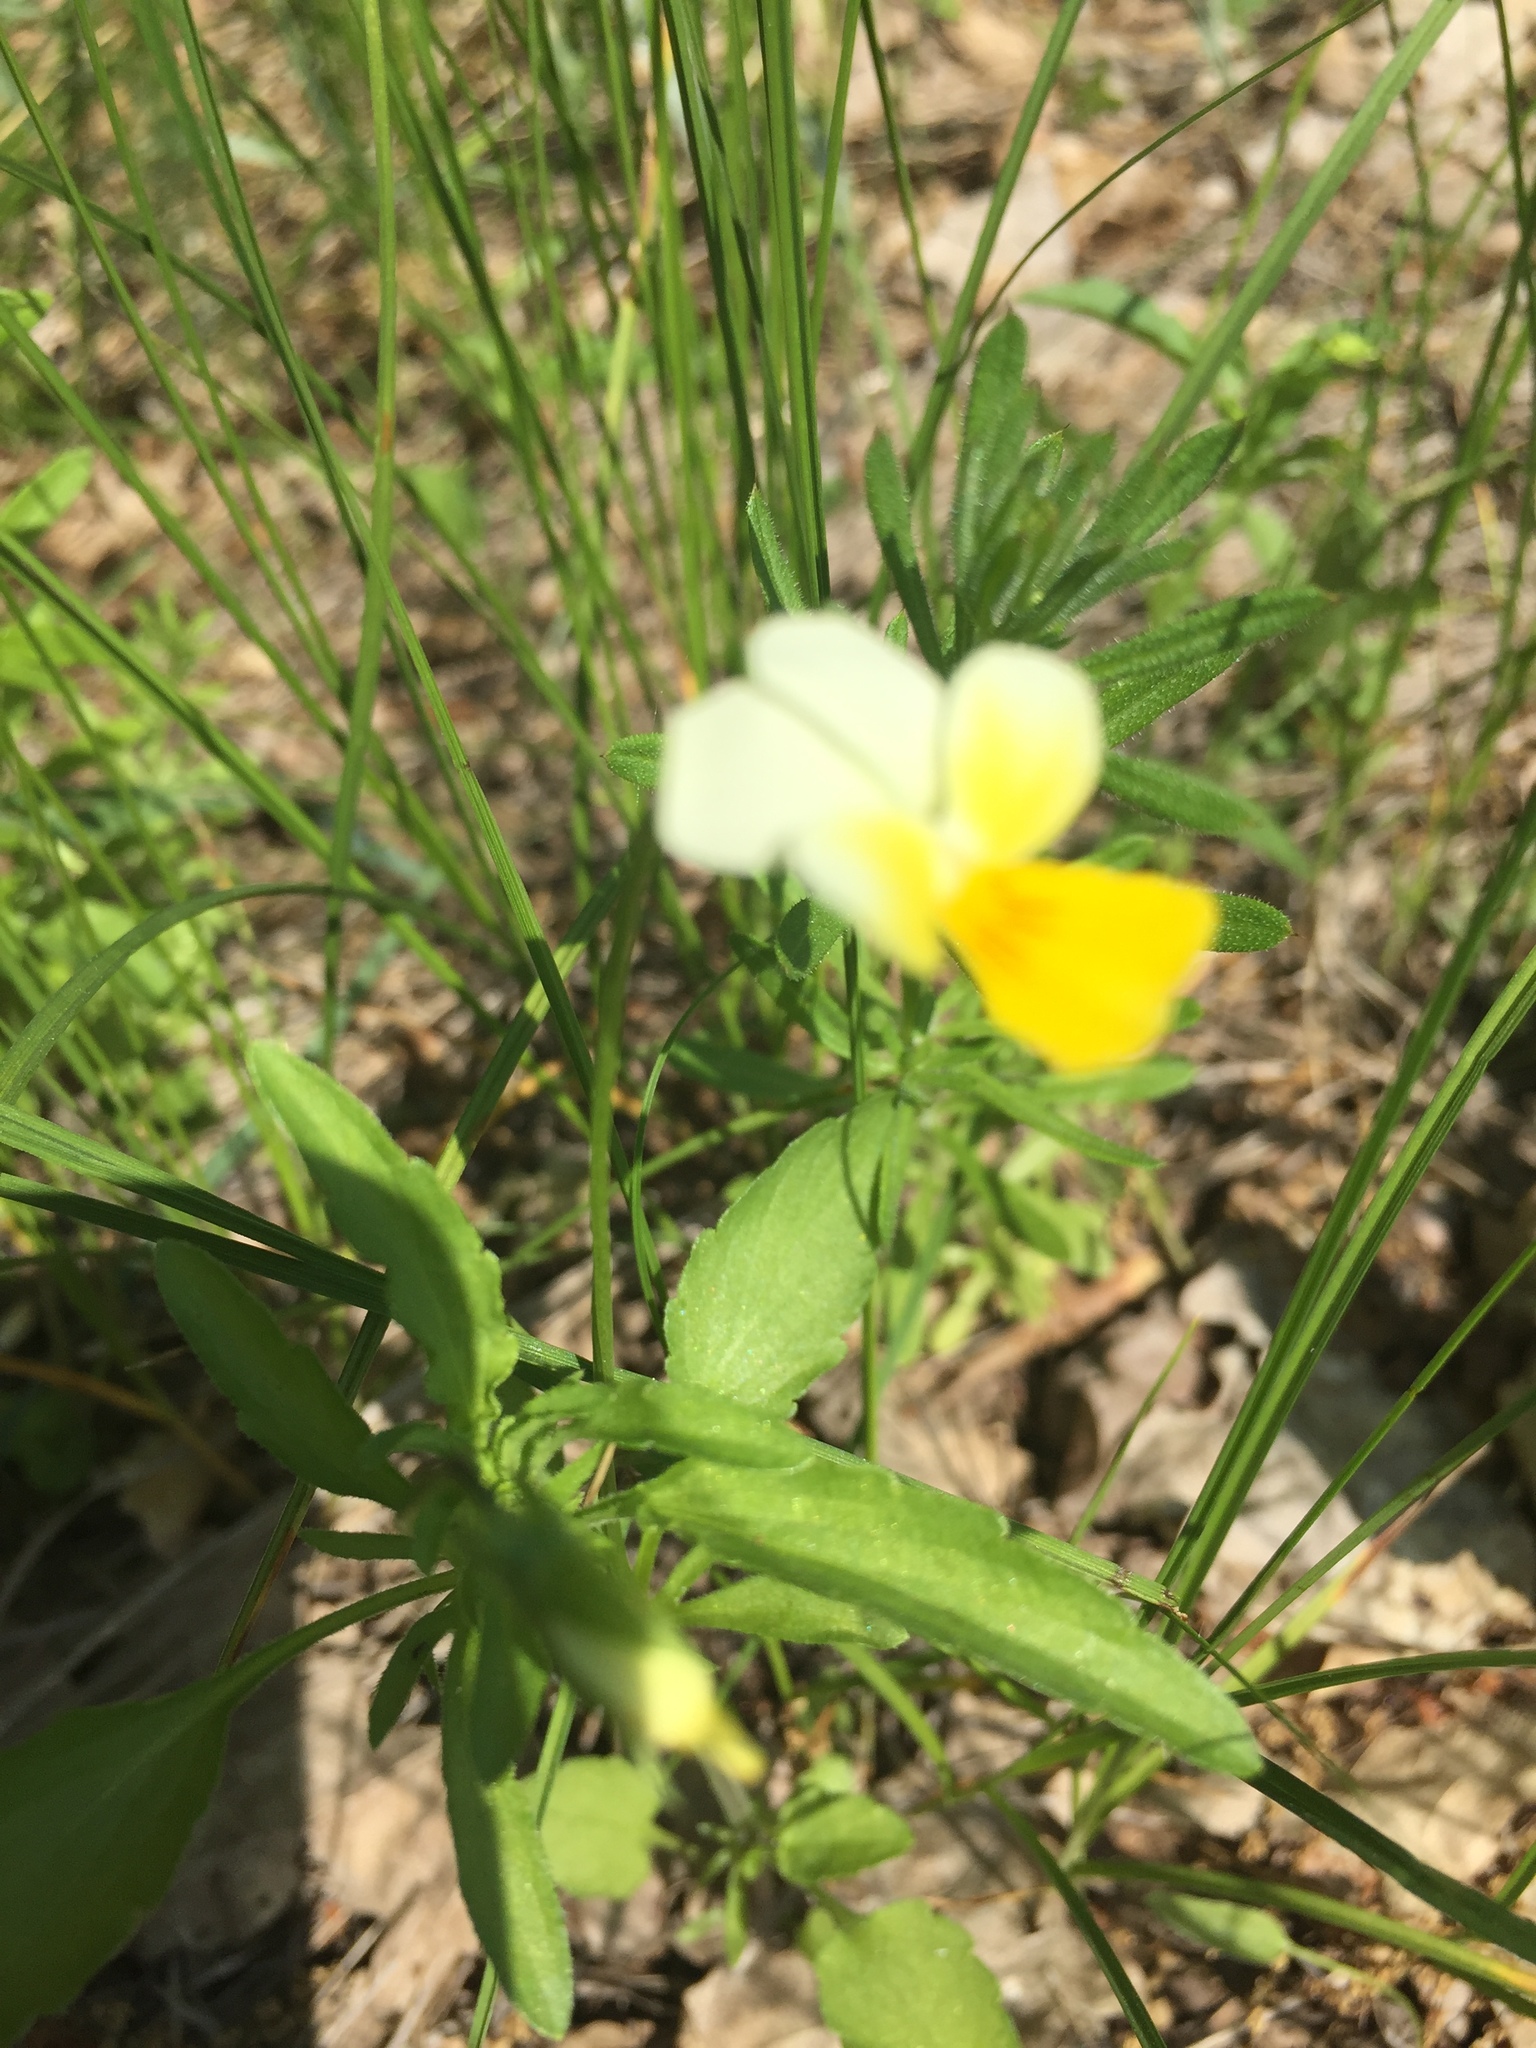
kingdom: Plantae
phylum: Tracheophyta
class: Magnoliopsida
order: Malpighiales
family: Violaceae
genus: Viola
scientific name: Viola arvensis
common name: Field pansy
